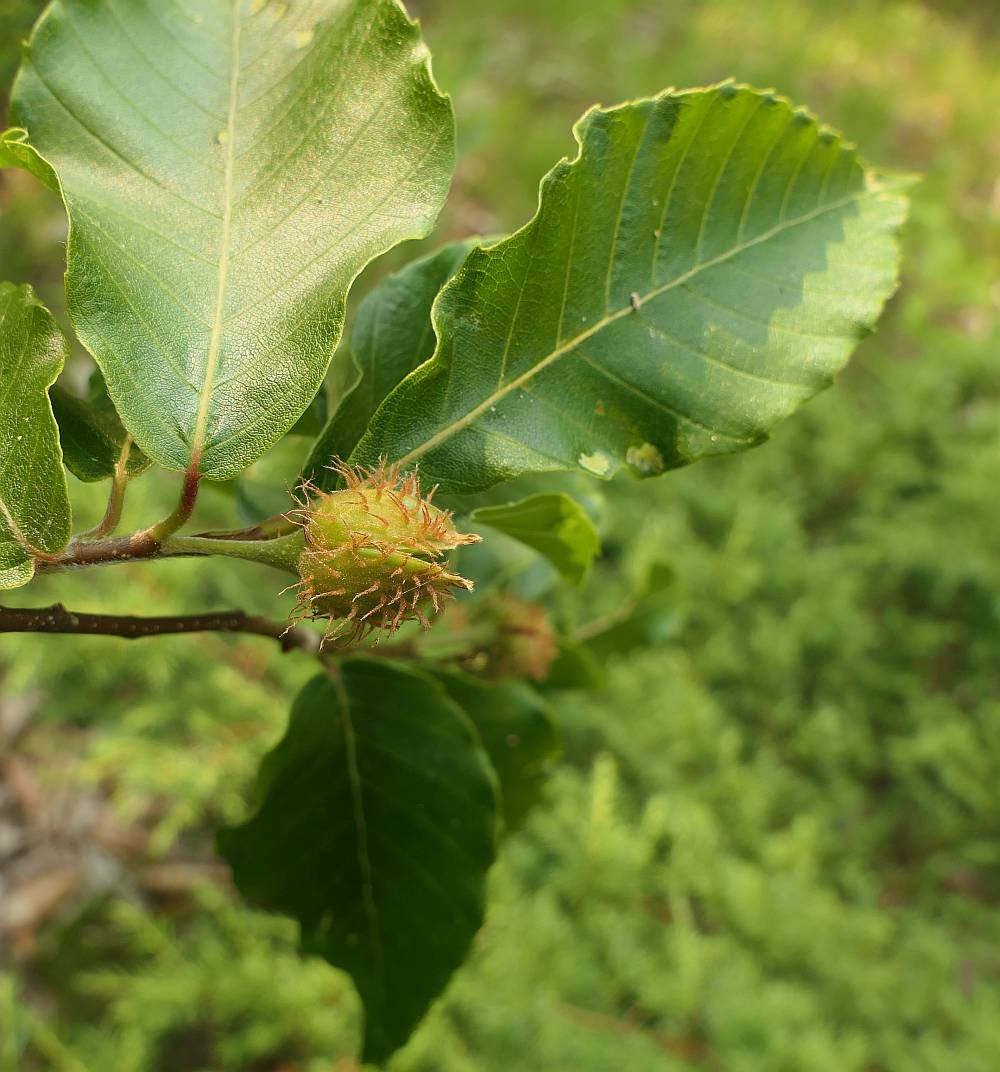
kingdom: Plantae
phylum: Tracheophyta
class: Magnoliopsida
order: Fagales
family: Fagaceae
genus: Fagus
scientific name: Fagus grandifolia
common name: American beech
